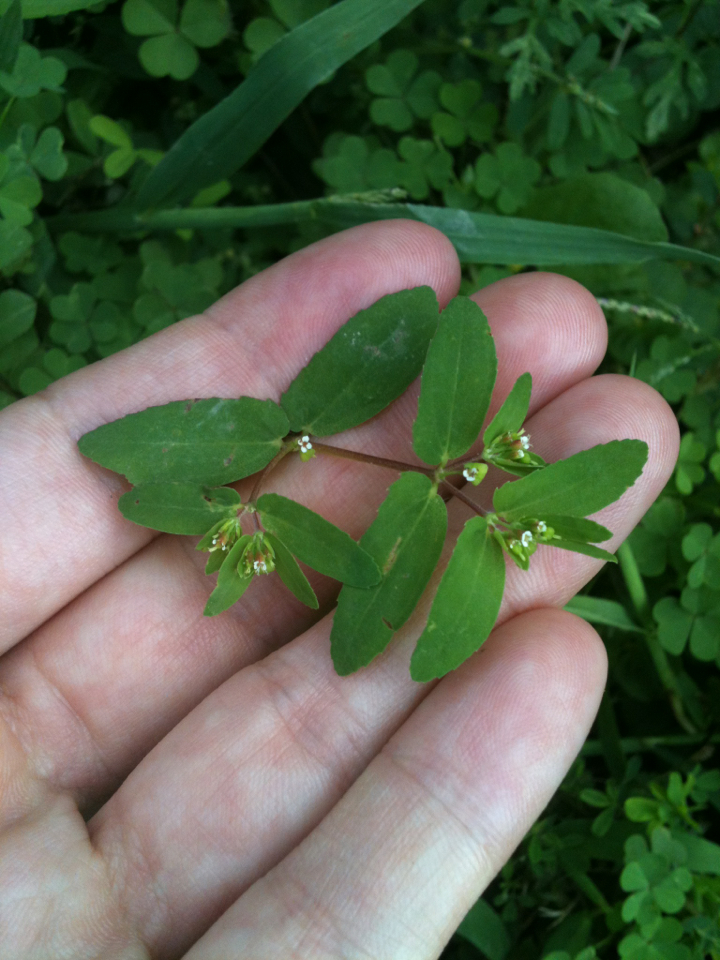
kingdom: Plantae
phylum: Tracheophyta
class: Magnoliopsida
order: Malpighiales
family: Euphorbiaceae
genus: Euphorbia
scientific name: Euphorbia nutans
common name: Eyebane
